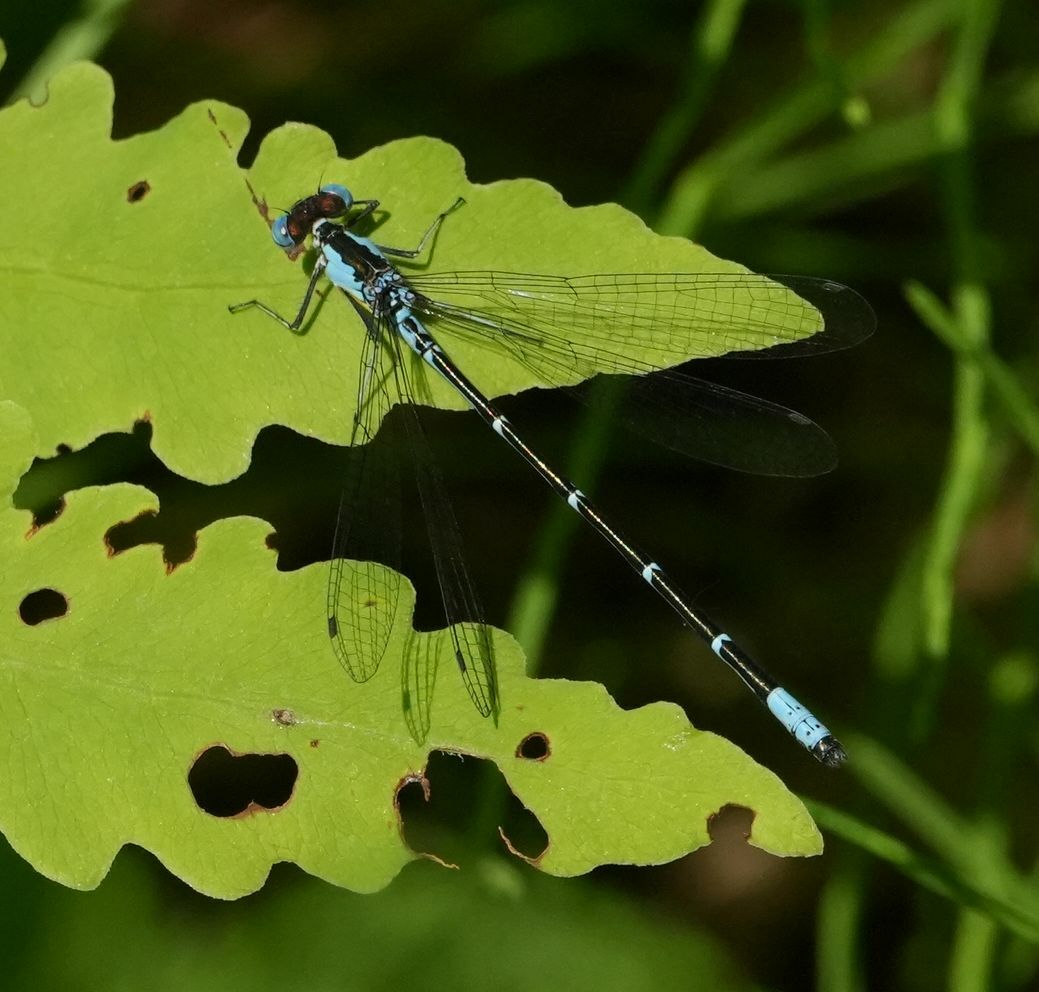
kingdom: Animalia
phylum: Arthropoda
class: Insecta
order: Odonata
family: Coenagrionidae
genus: Chromagrion
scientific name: Chromagrion conditum
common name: Aurora damsel
